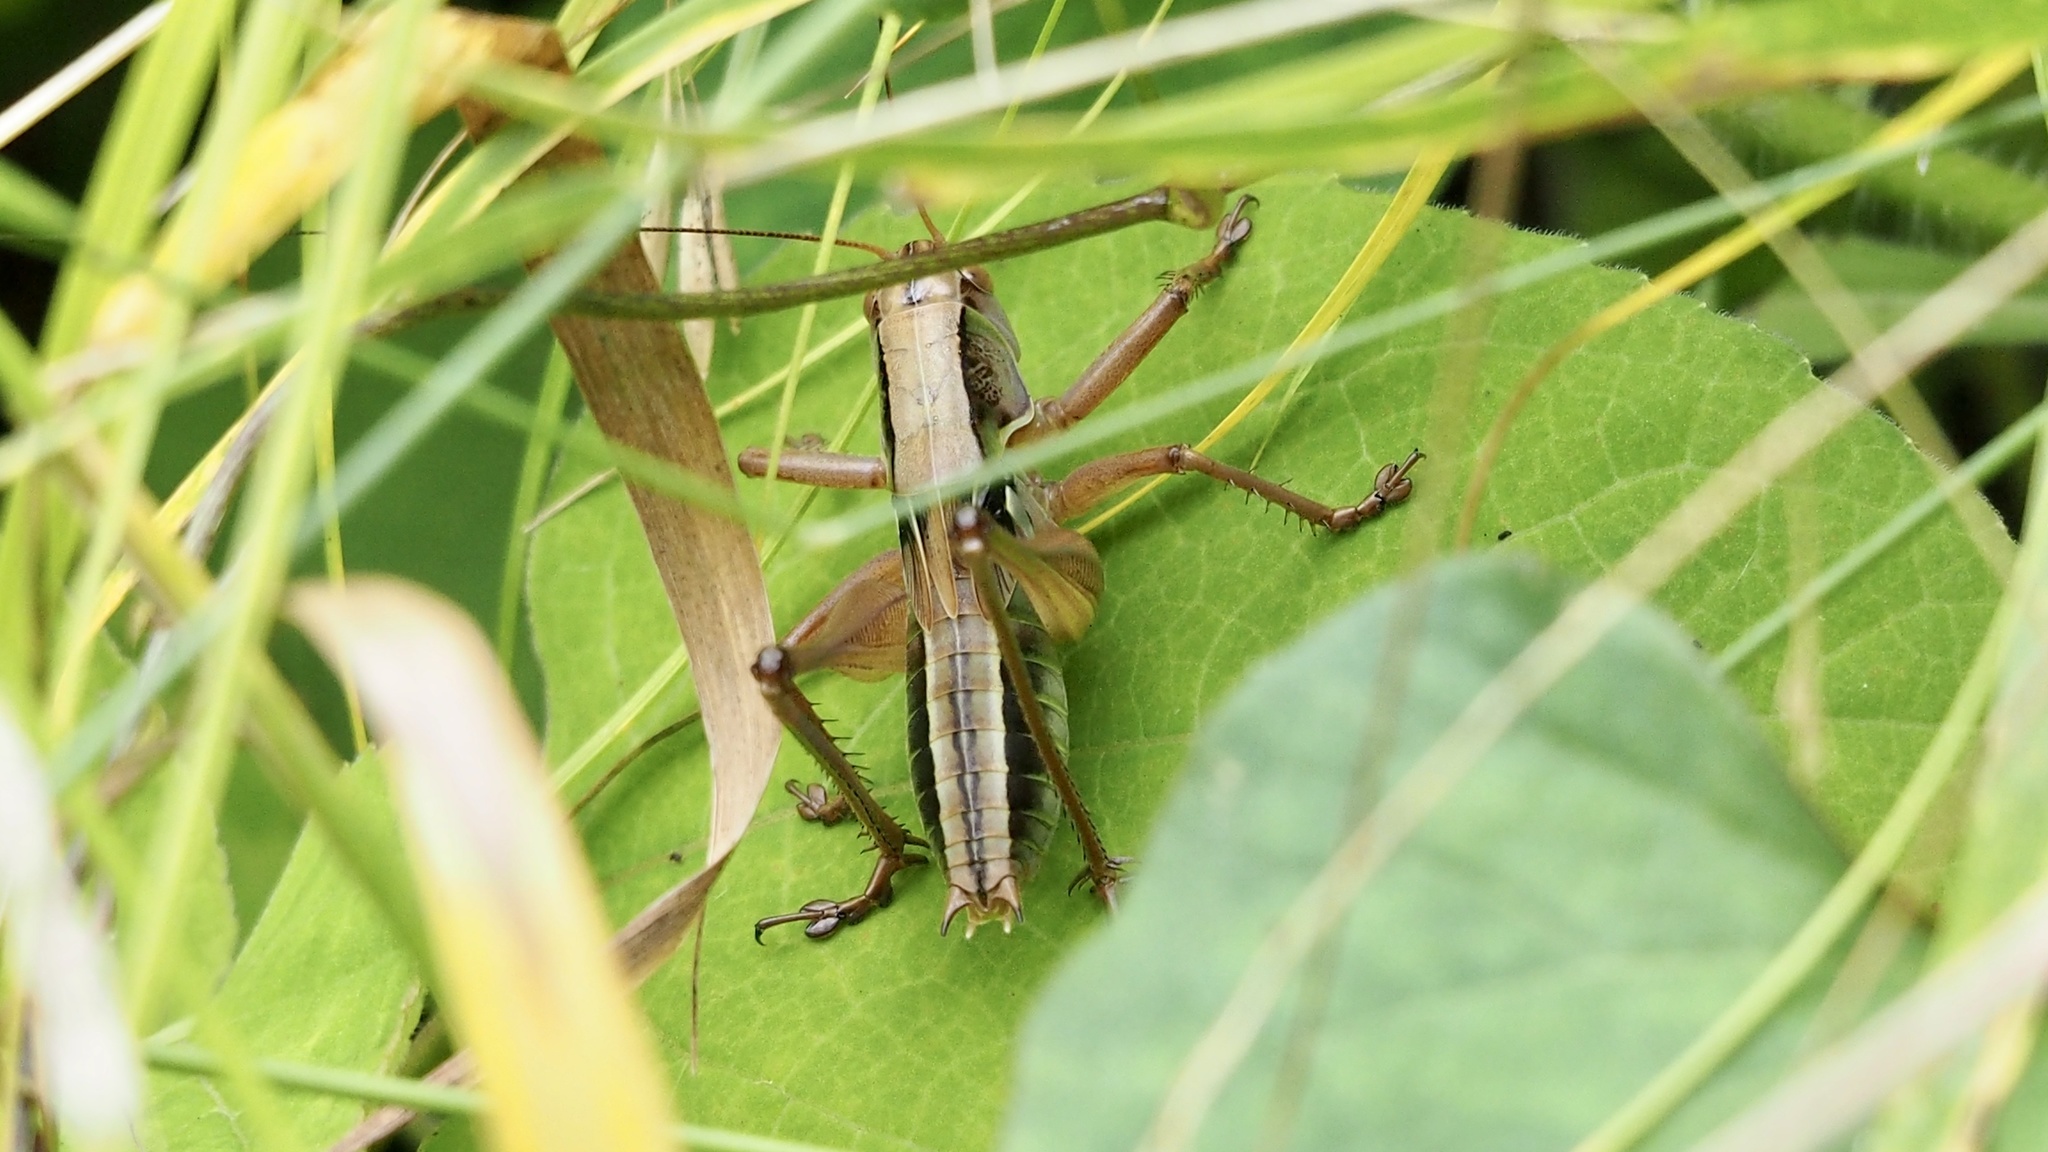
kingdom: Animalia
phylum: Arthropoda
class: Insecta
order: Orthoptera
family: Tettigoniidae
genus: Gampsocleis
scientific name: Gampsocleis buergeri
